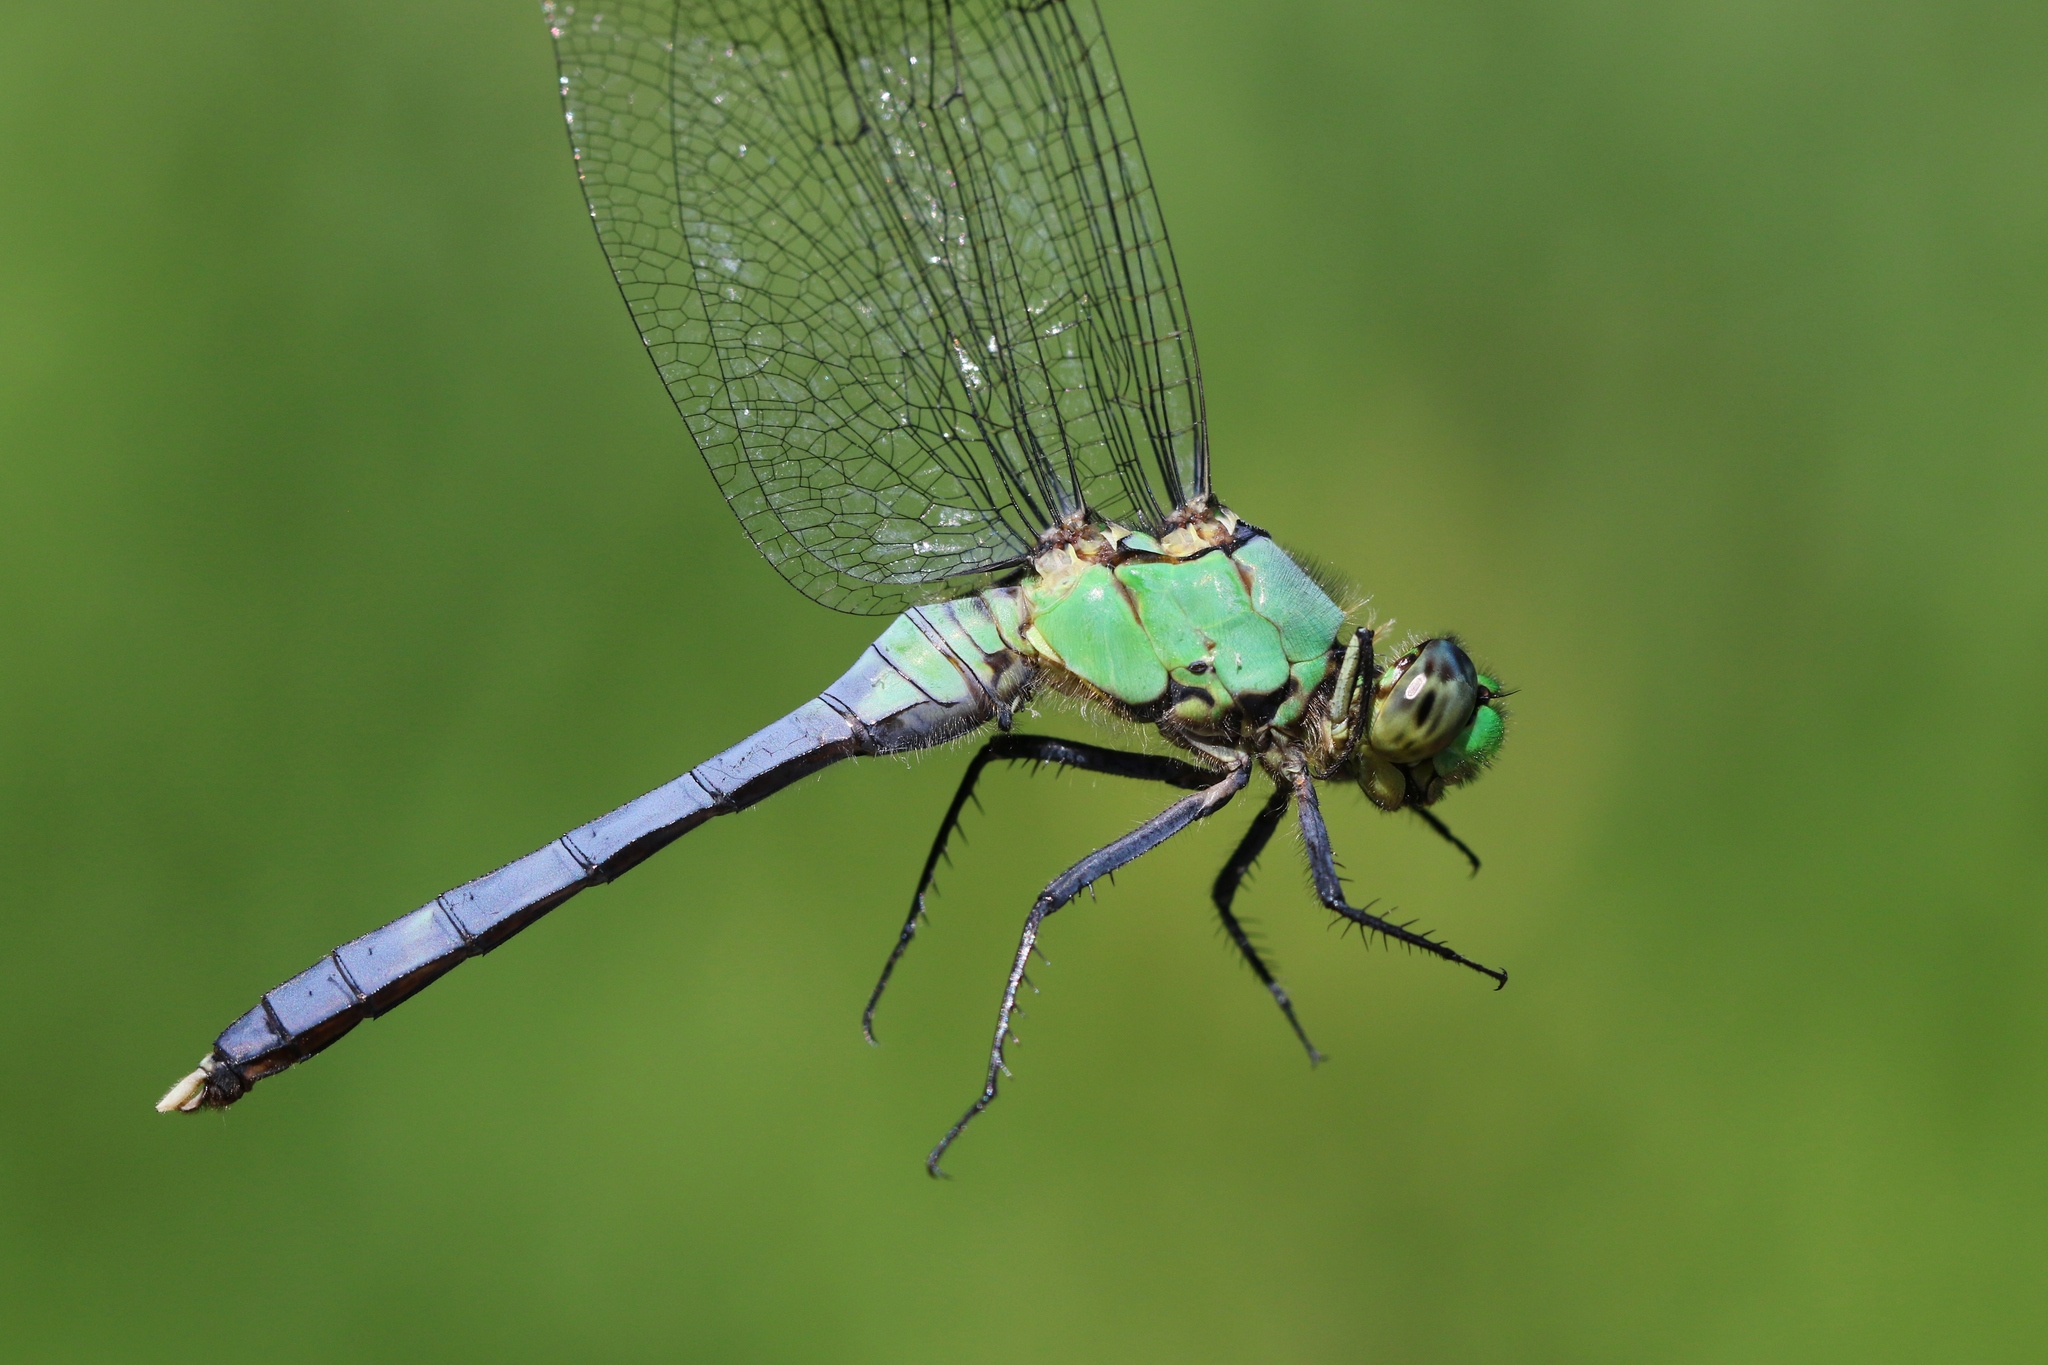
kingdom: Animalia
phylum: Arthropoda
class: Insecta
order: Odonata
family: Libellulidae
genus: Erythemis
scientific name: Erythemis simplicicollis
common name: Eastern pondhawk
